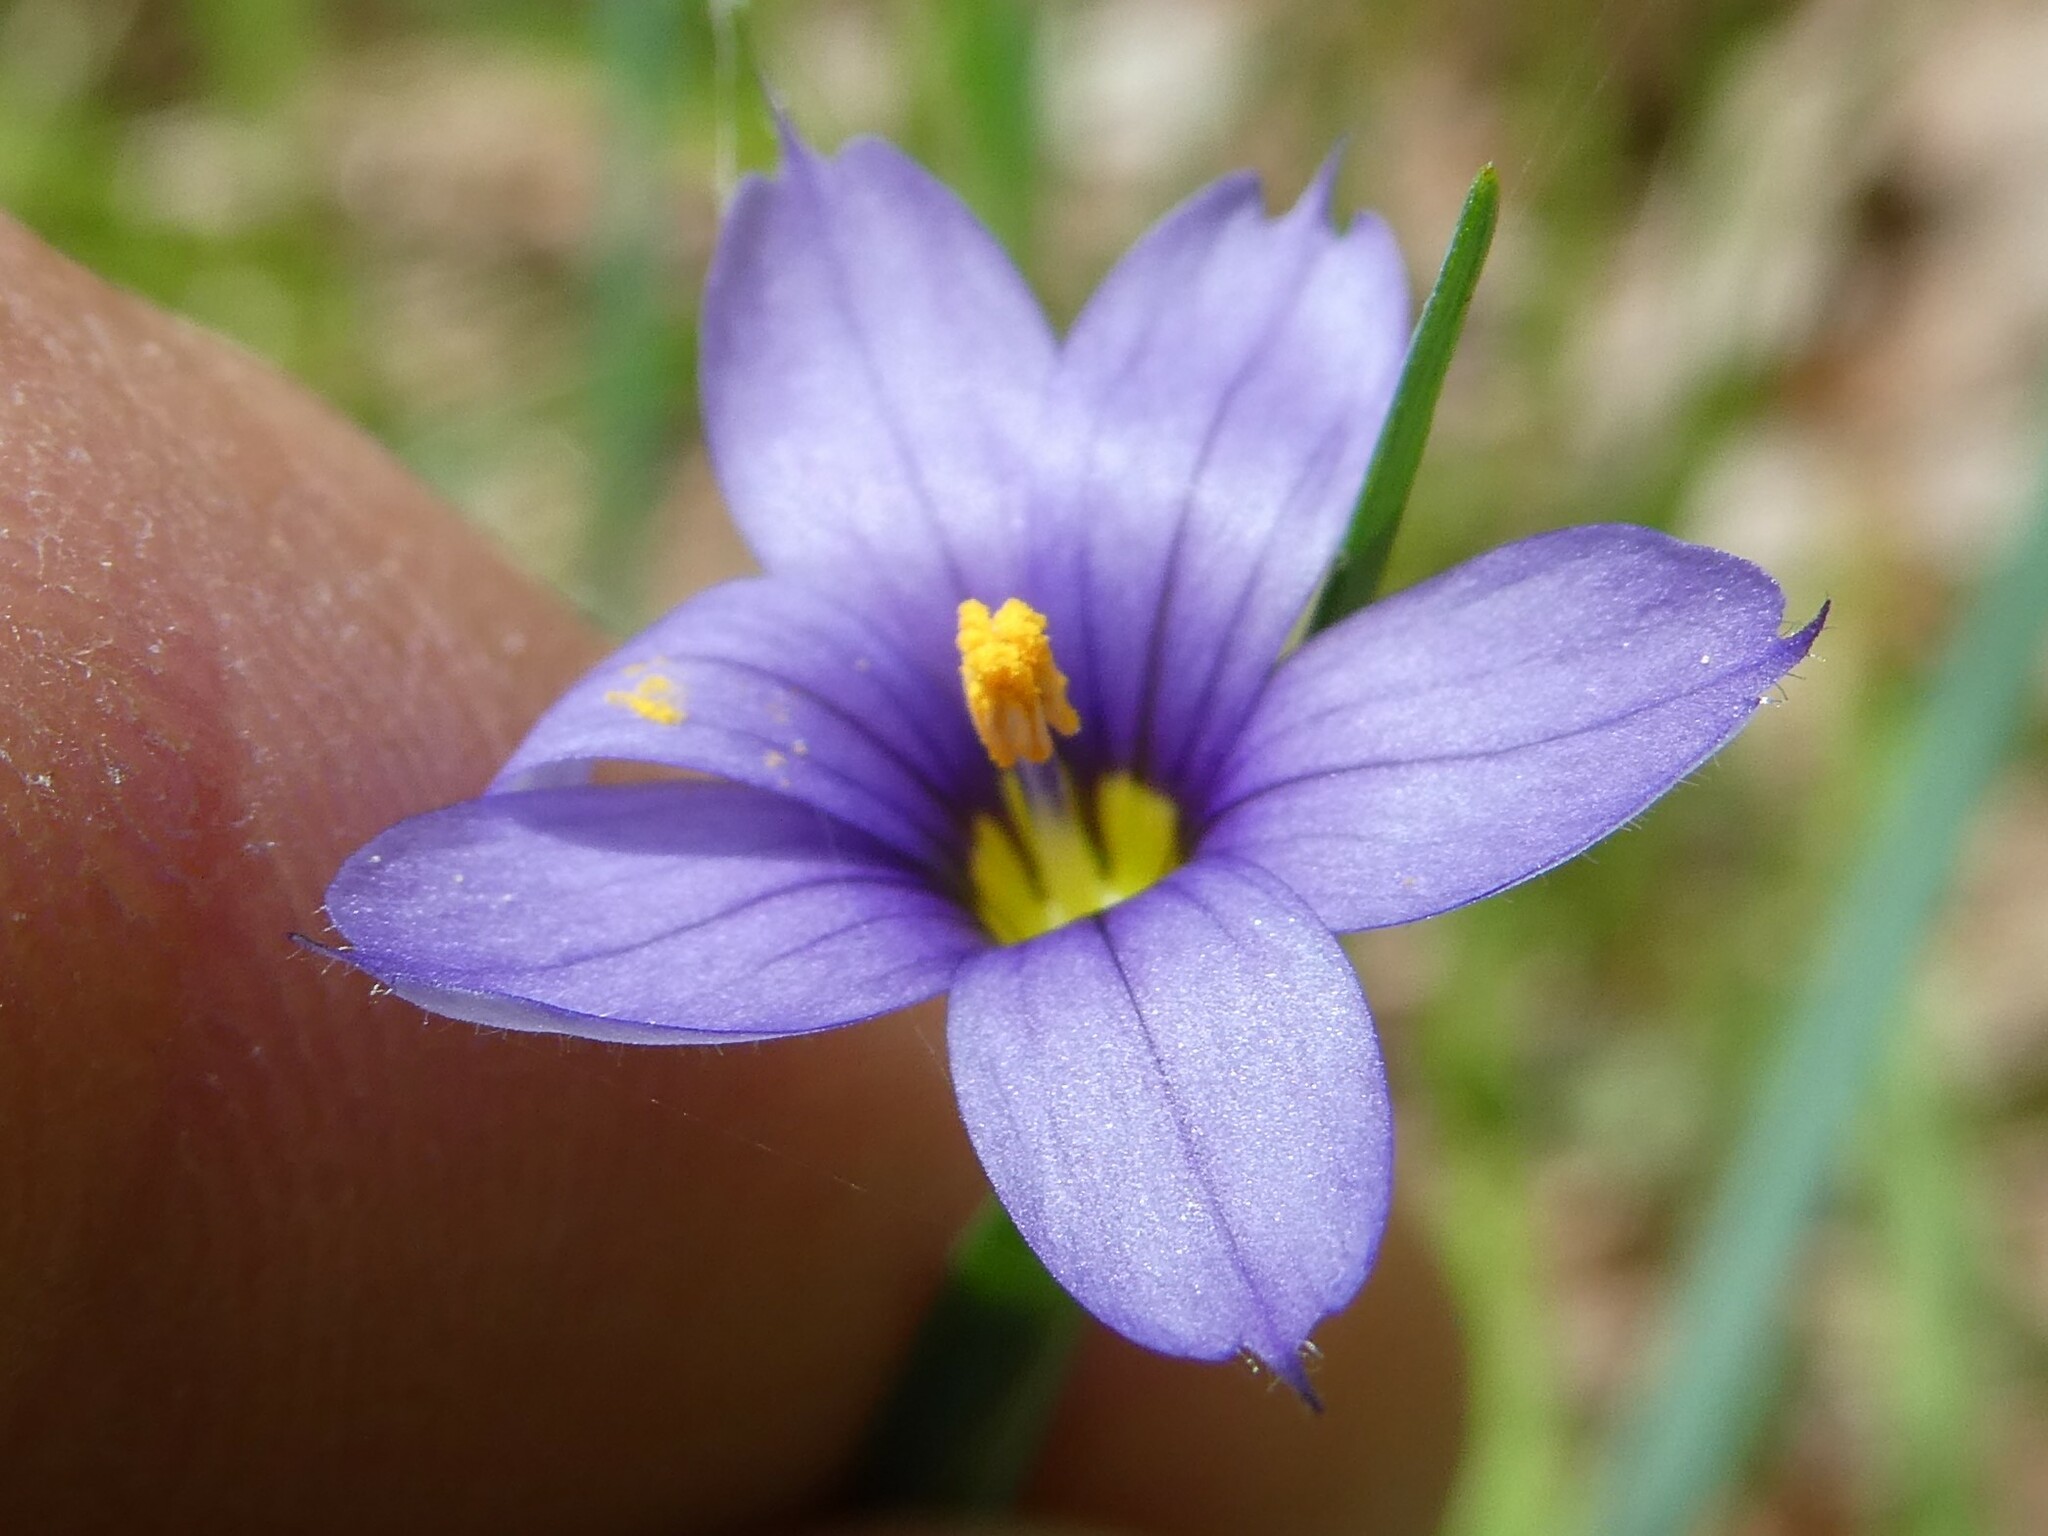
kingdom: Plantae
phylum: Tracheophyta
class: Liliopsida
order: Asparagales
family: Iridaceae
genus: Sisyrinchium
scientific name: Sisyrinchium montanum
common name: American blue-eyed-grass
